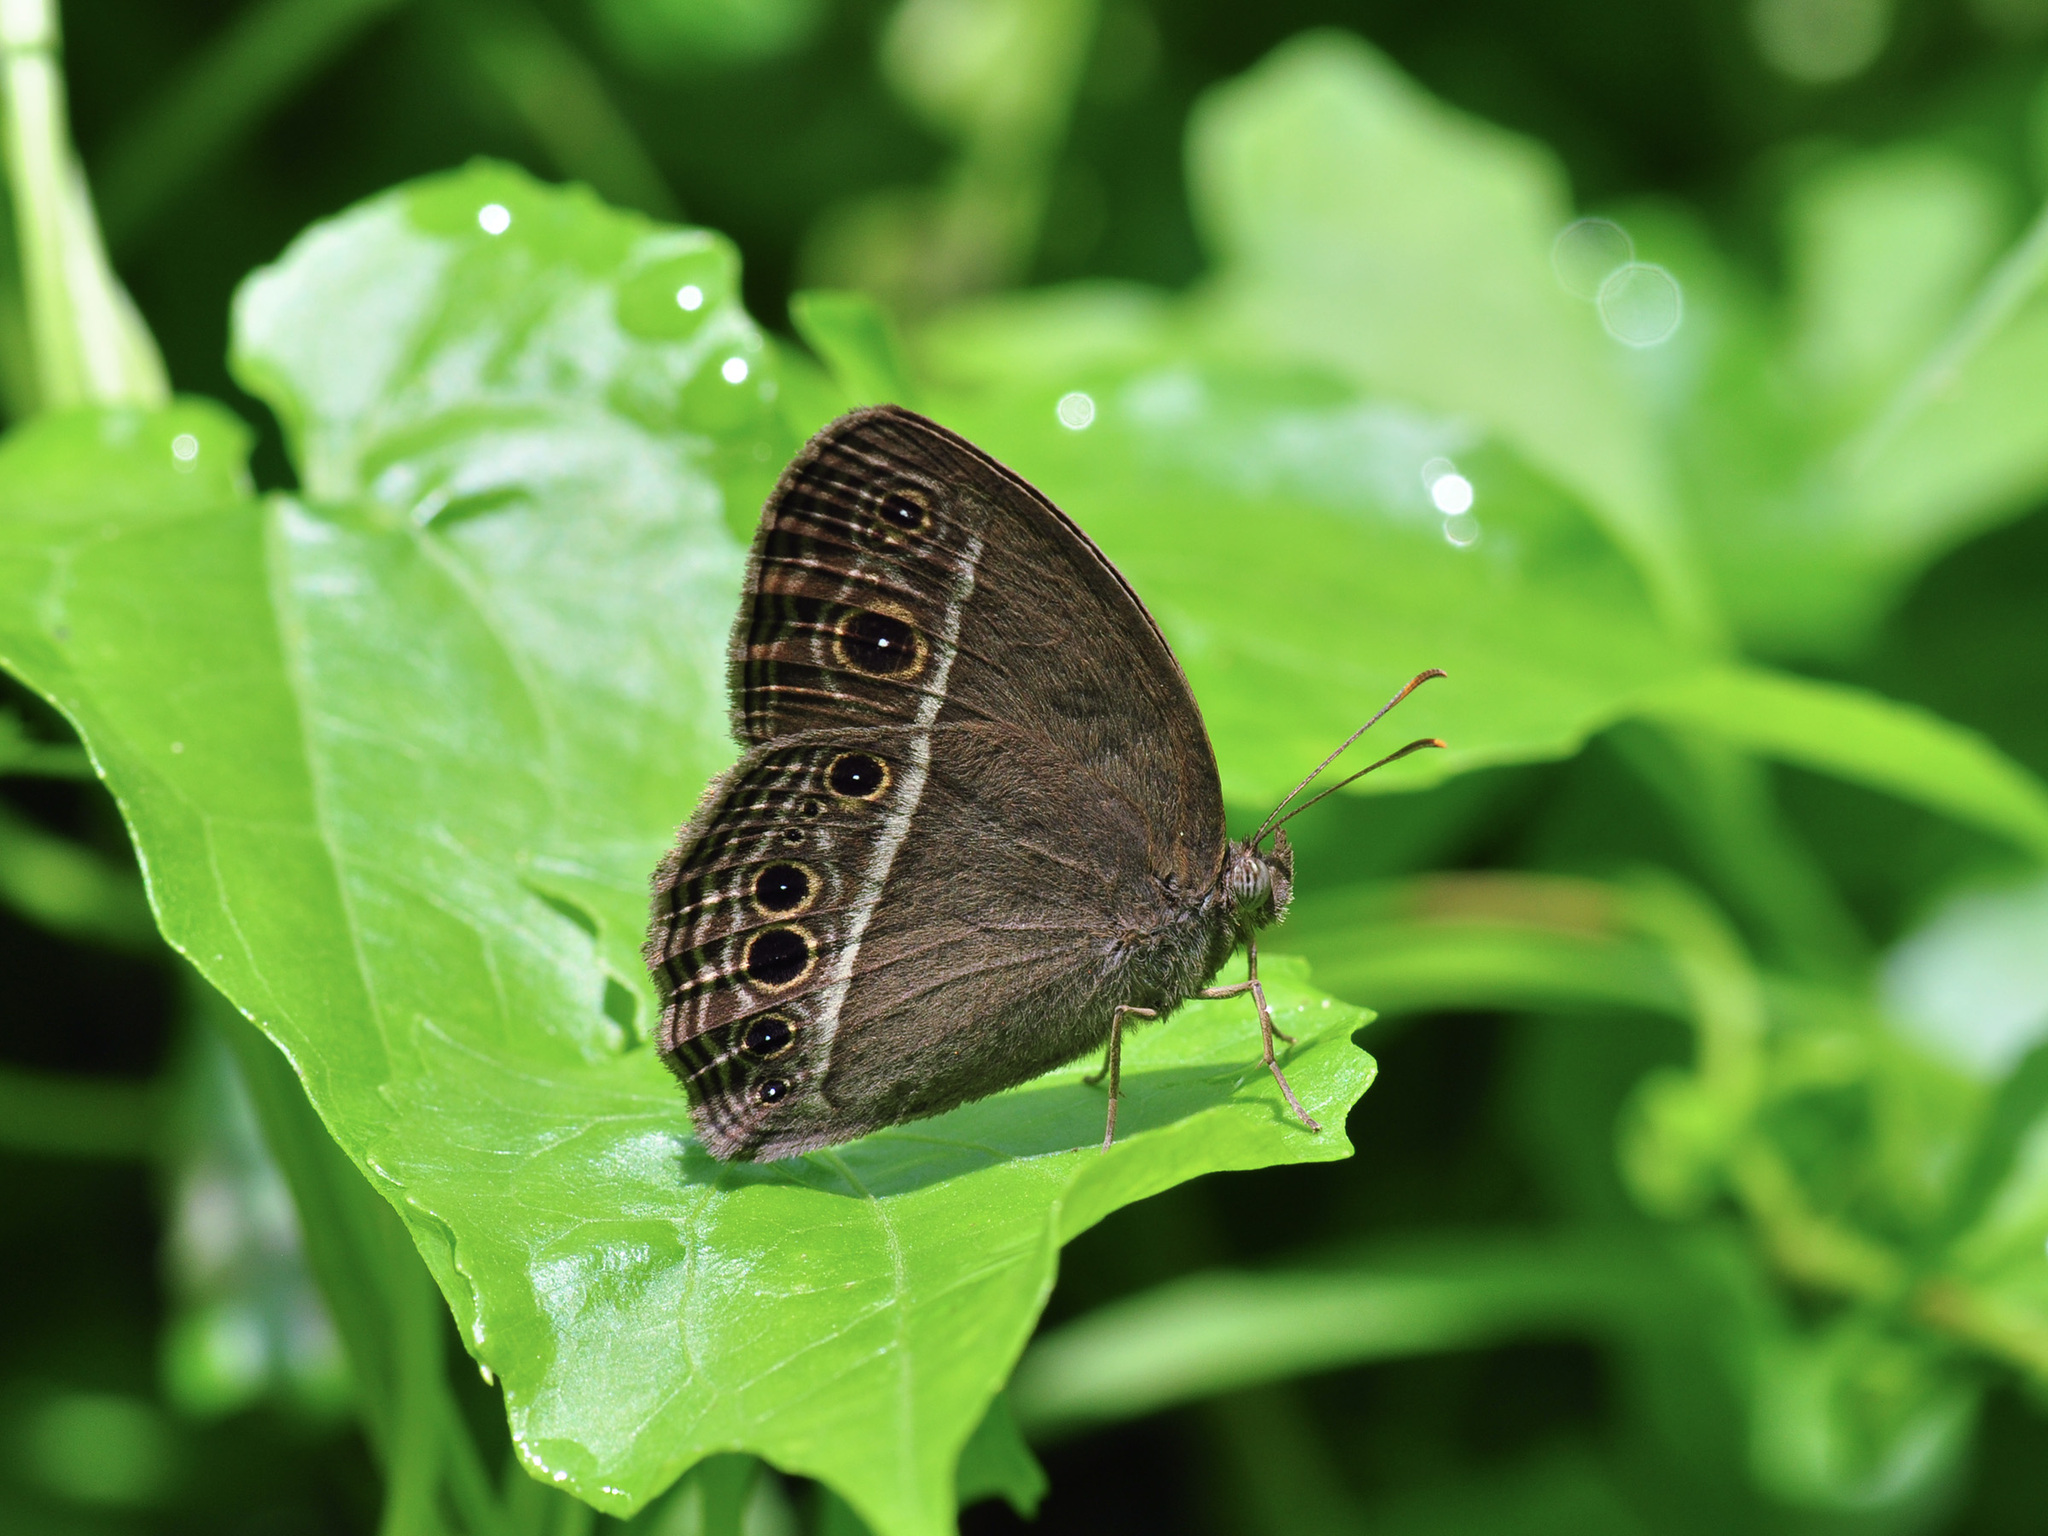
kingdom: Animalia
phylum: Arthropoda
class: Insecta
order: Lepidoptera
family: Nymphalidae
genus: Mycalesis
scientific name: Mycalesis mineus
